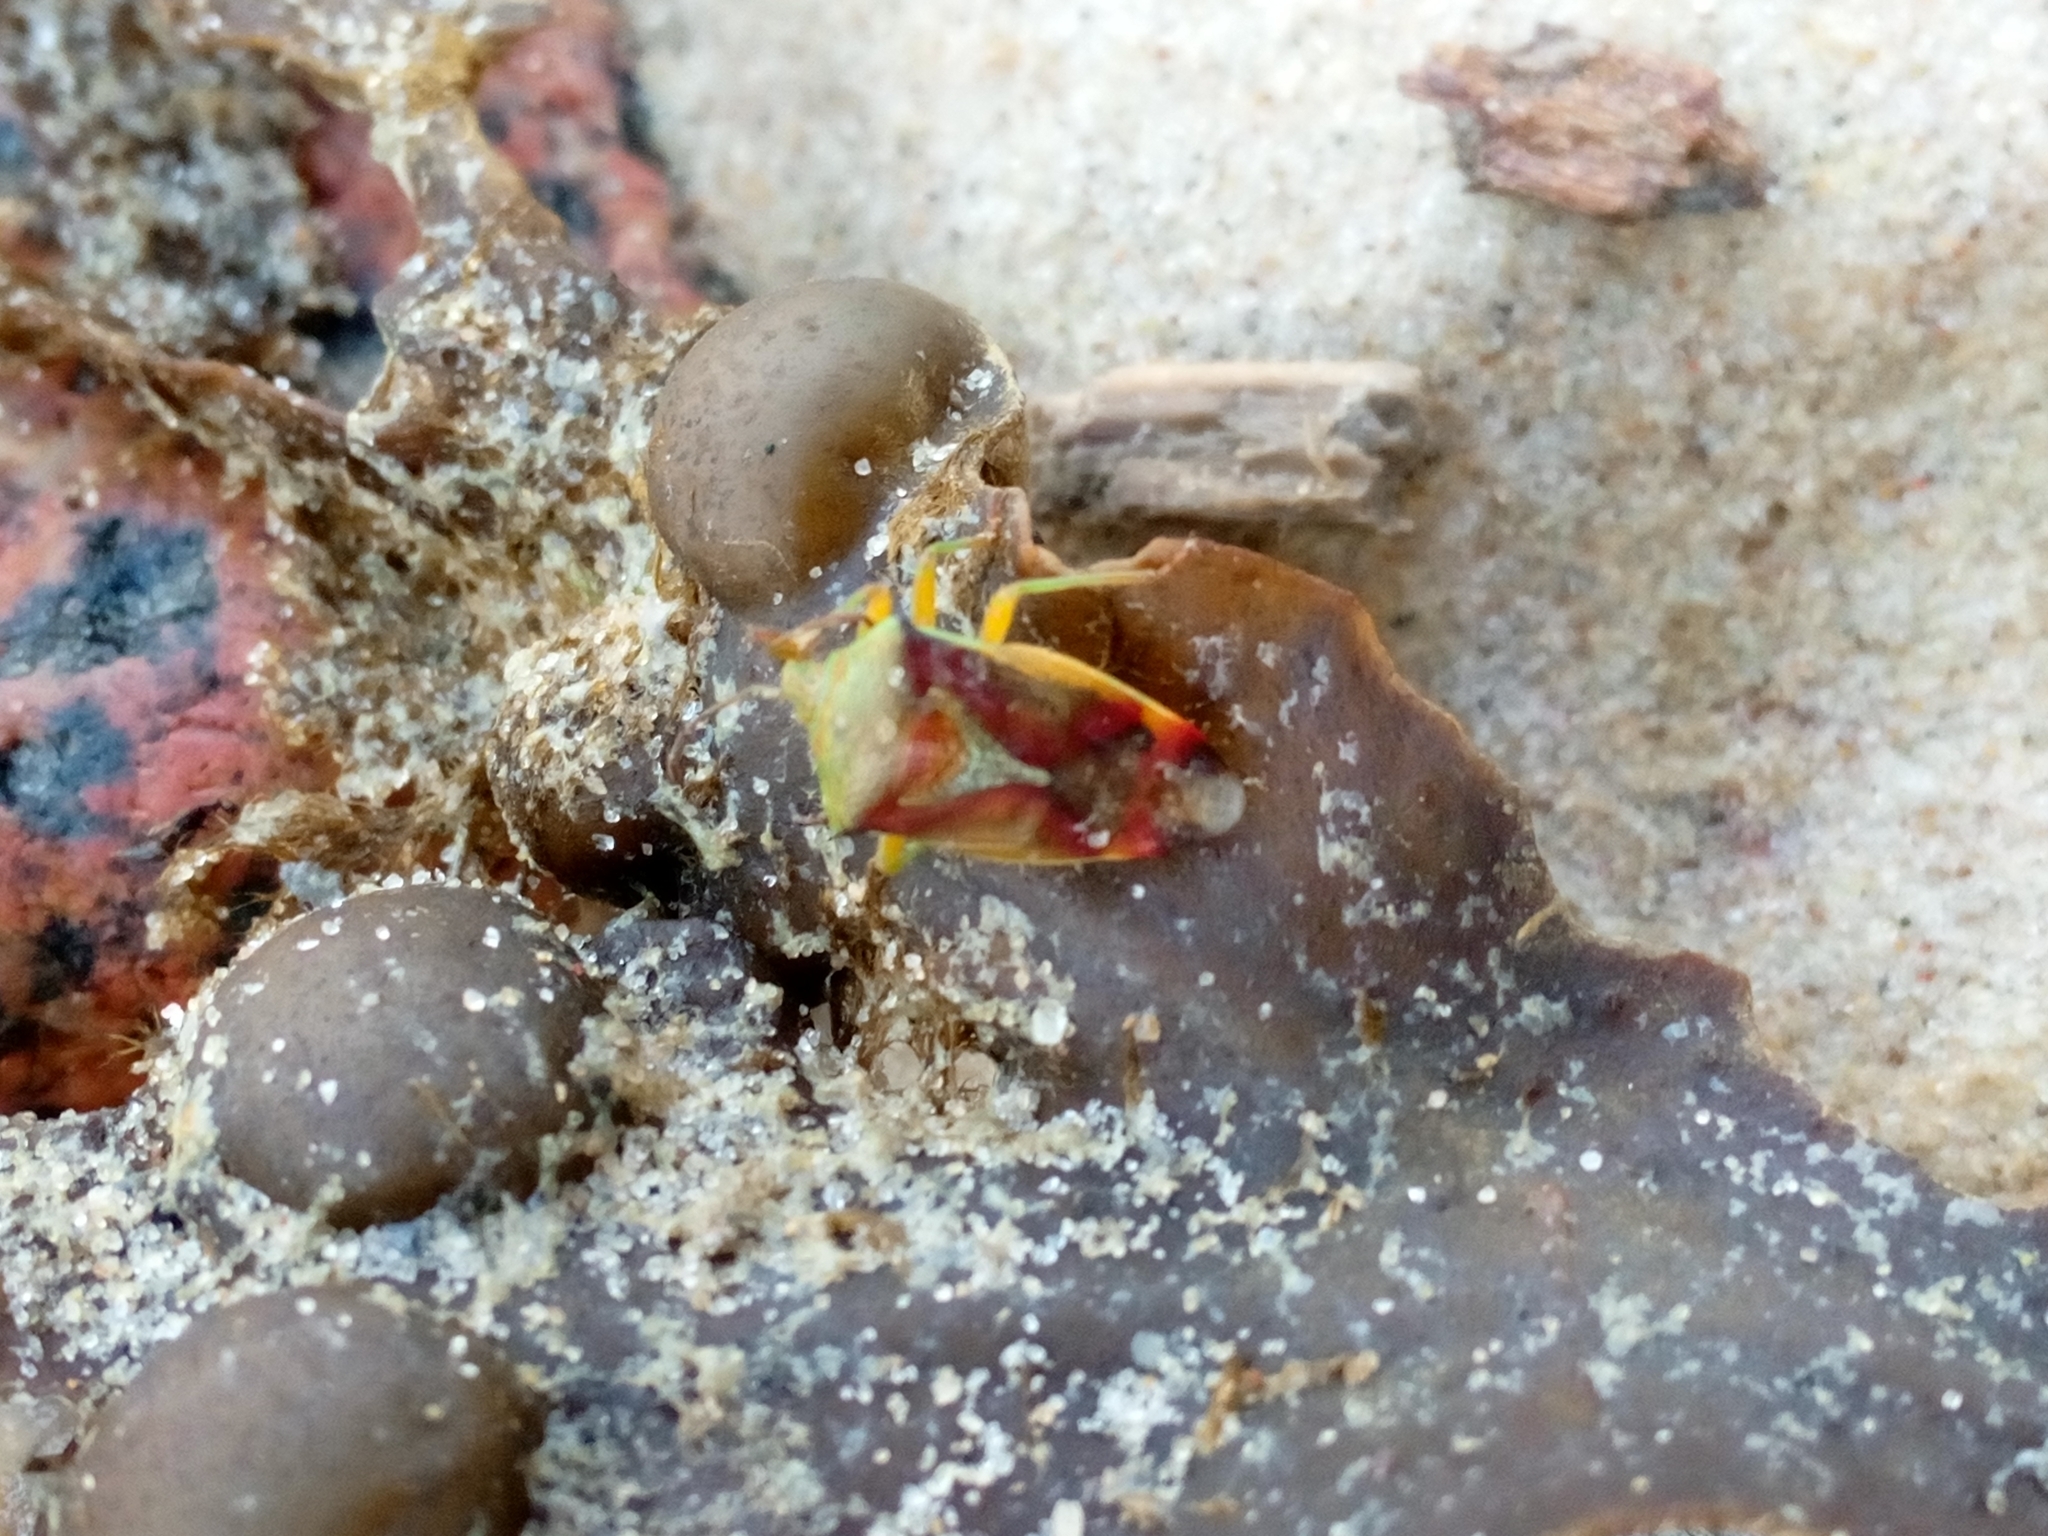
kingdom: Animalia
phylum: Arthropoda
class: Insecta
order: Hemiptera
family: Acanthosomatidae
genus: Elasmostethus
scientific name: Elasmostethus
